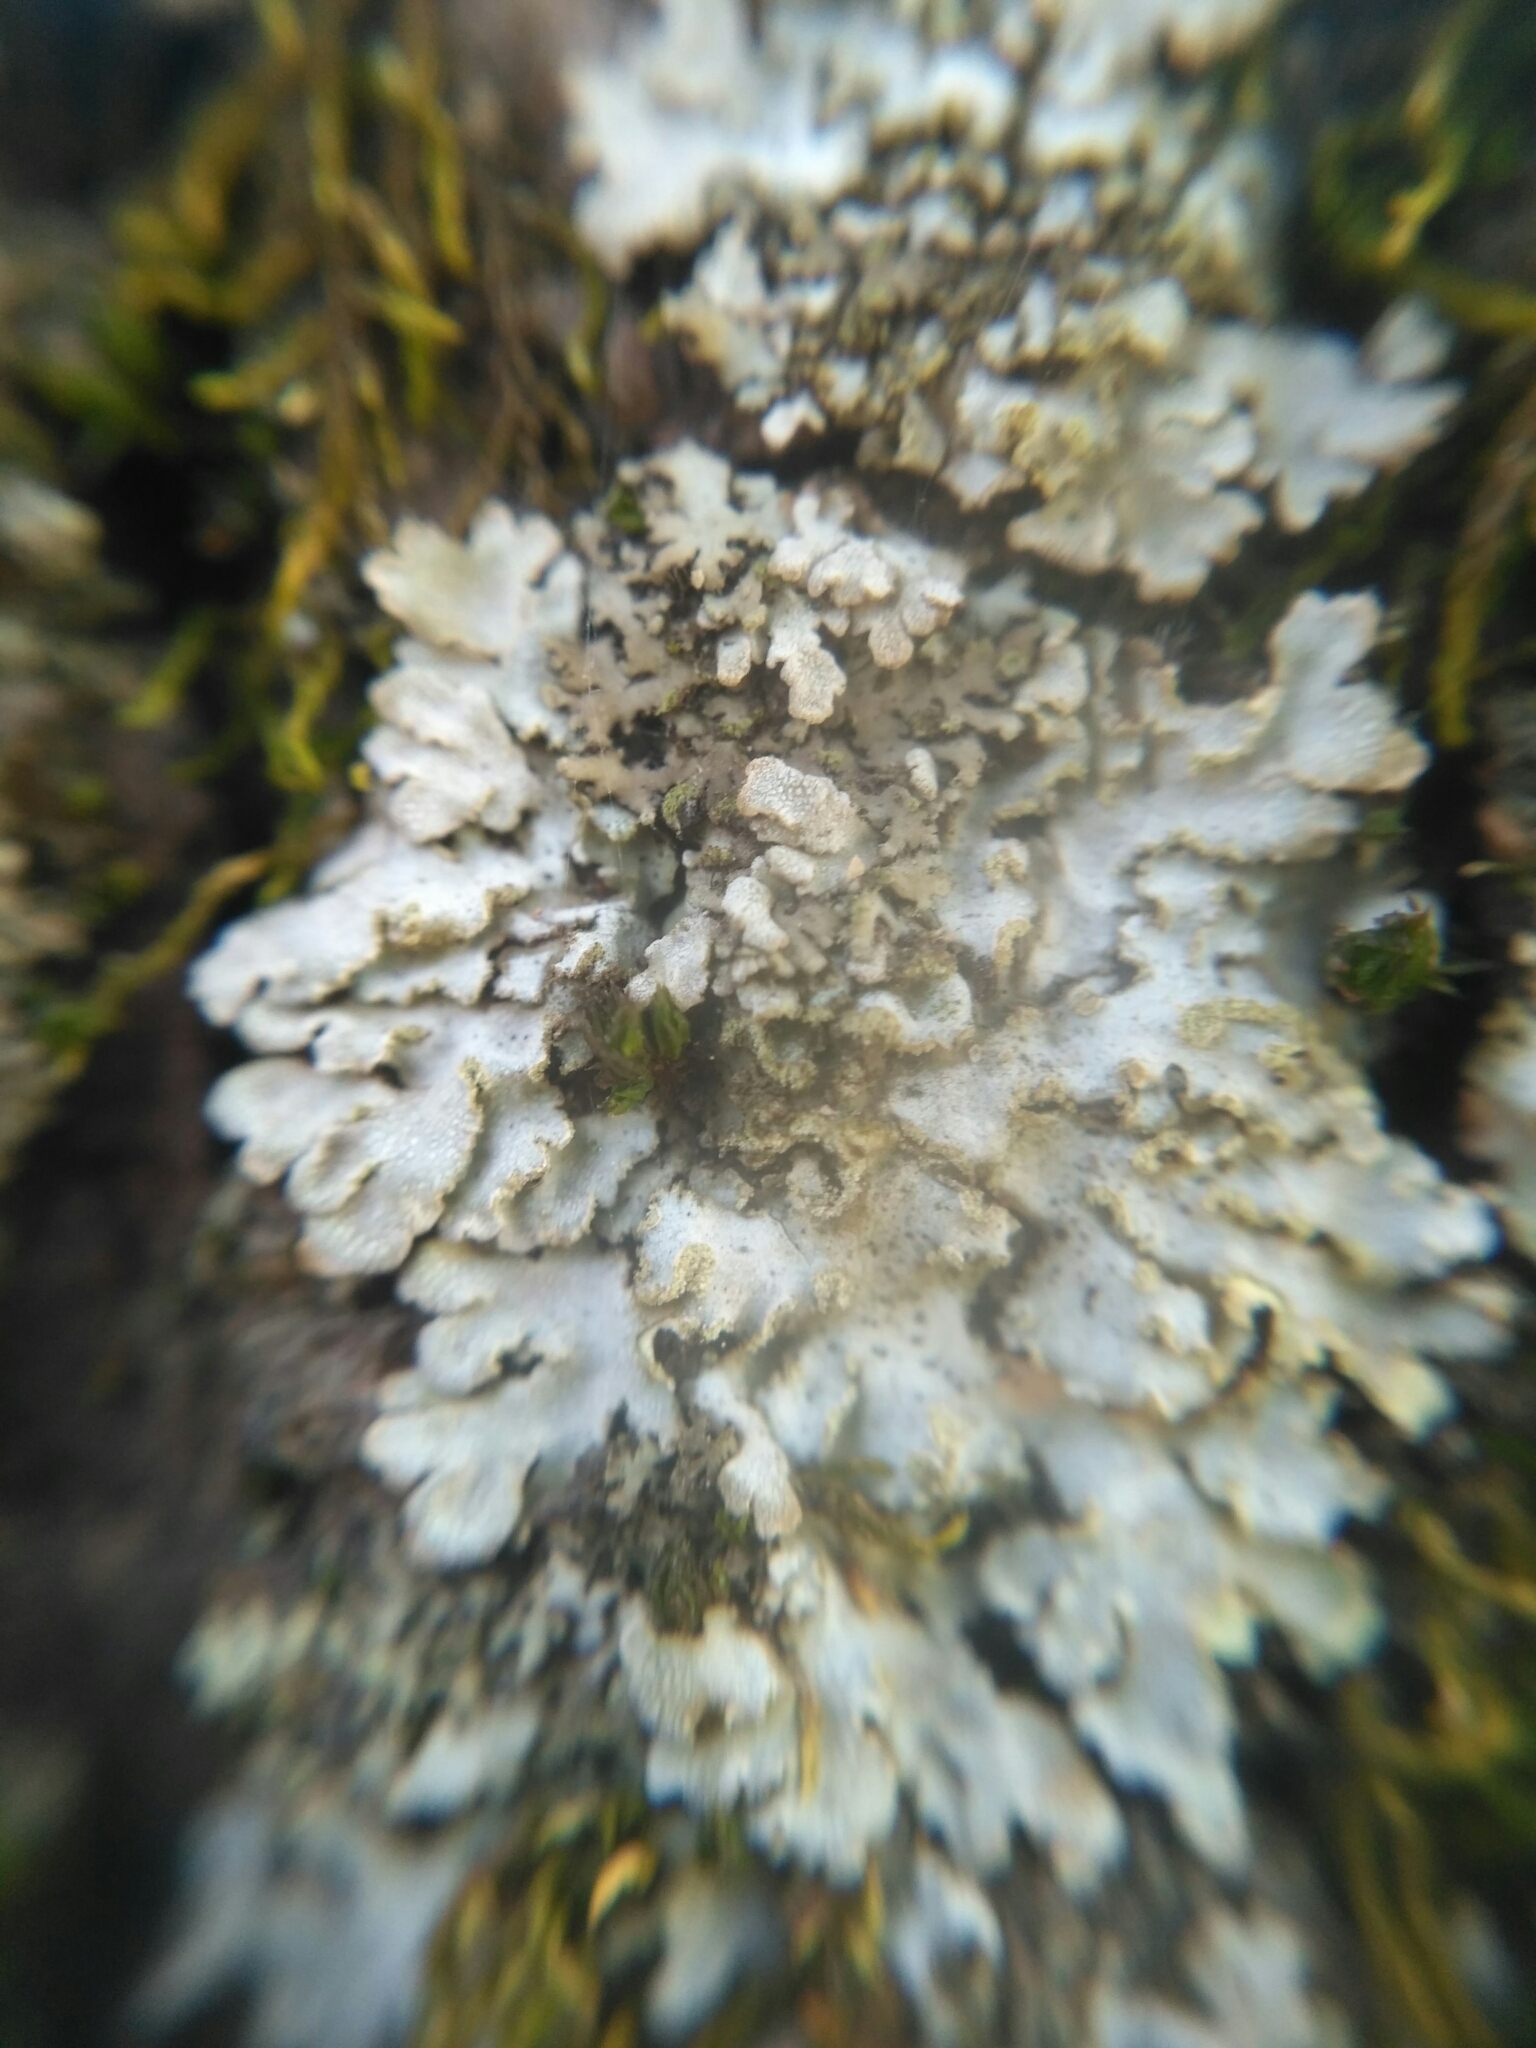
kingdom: Fungi
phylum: Ascomycota
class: Lecanoromycetes
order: Caliciales
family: Physciaceae
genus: Poeltonia
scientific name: Poeltonia grisea
